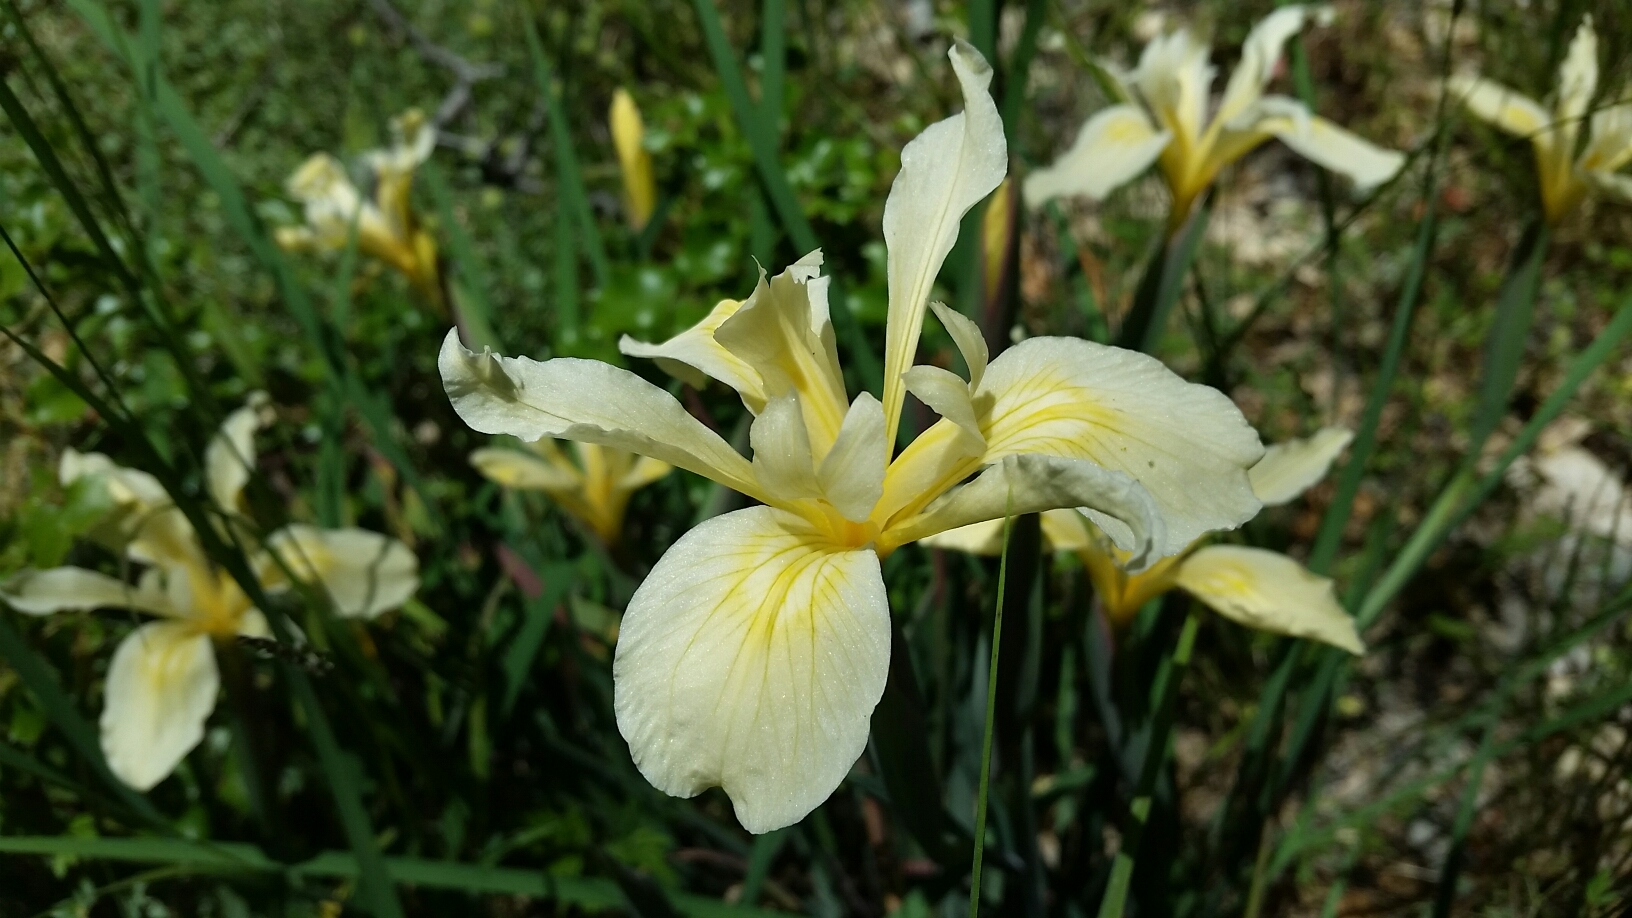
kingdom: Plantae
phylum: Tracheophyta
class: Liliopsida
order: Asparagales
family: Iridaceae
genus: Iris
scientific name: Iris fernaldii
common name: Fernald's iris
